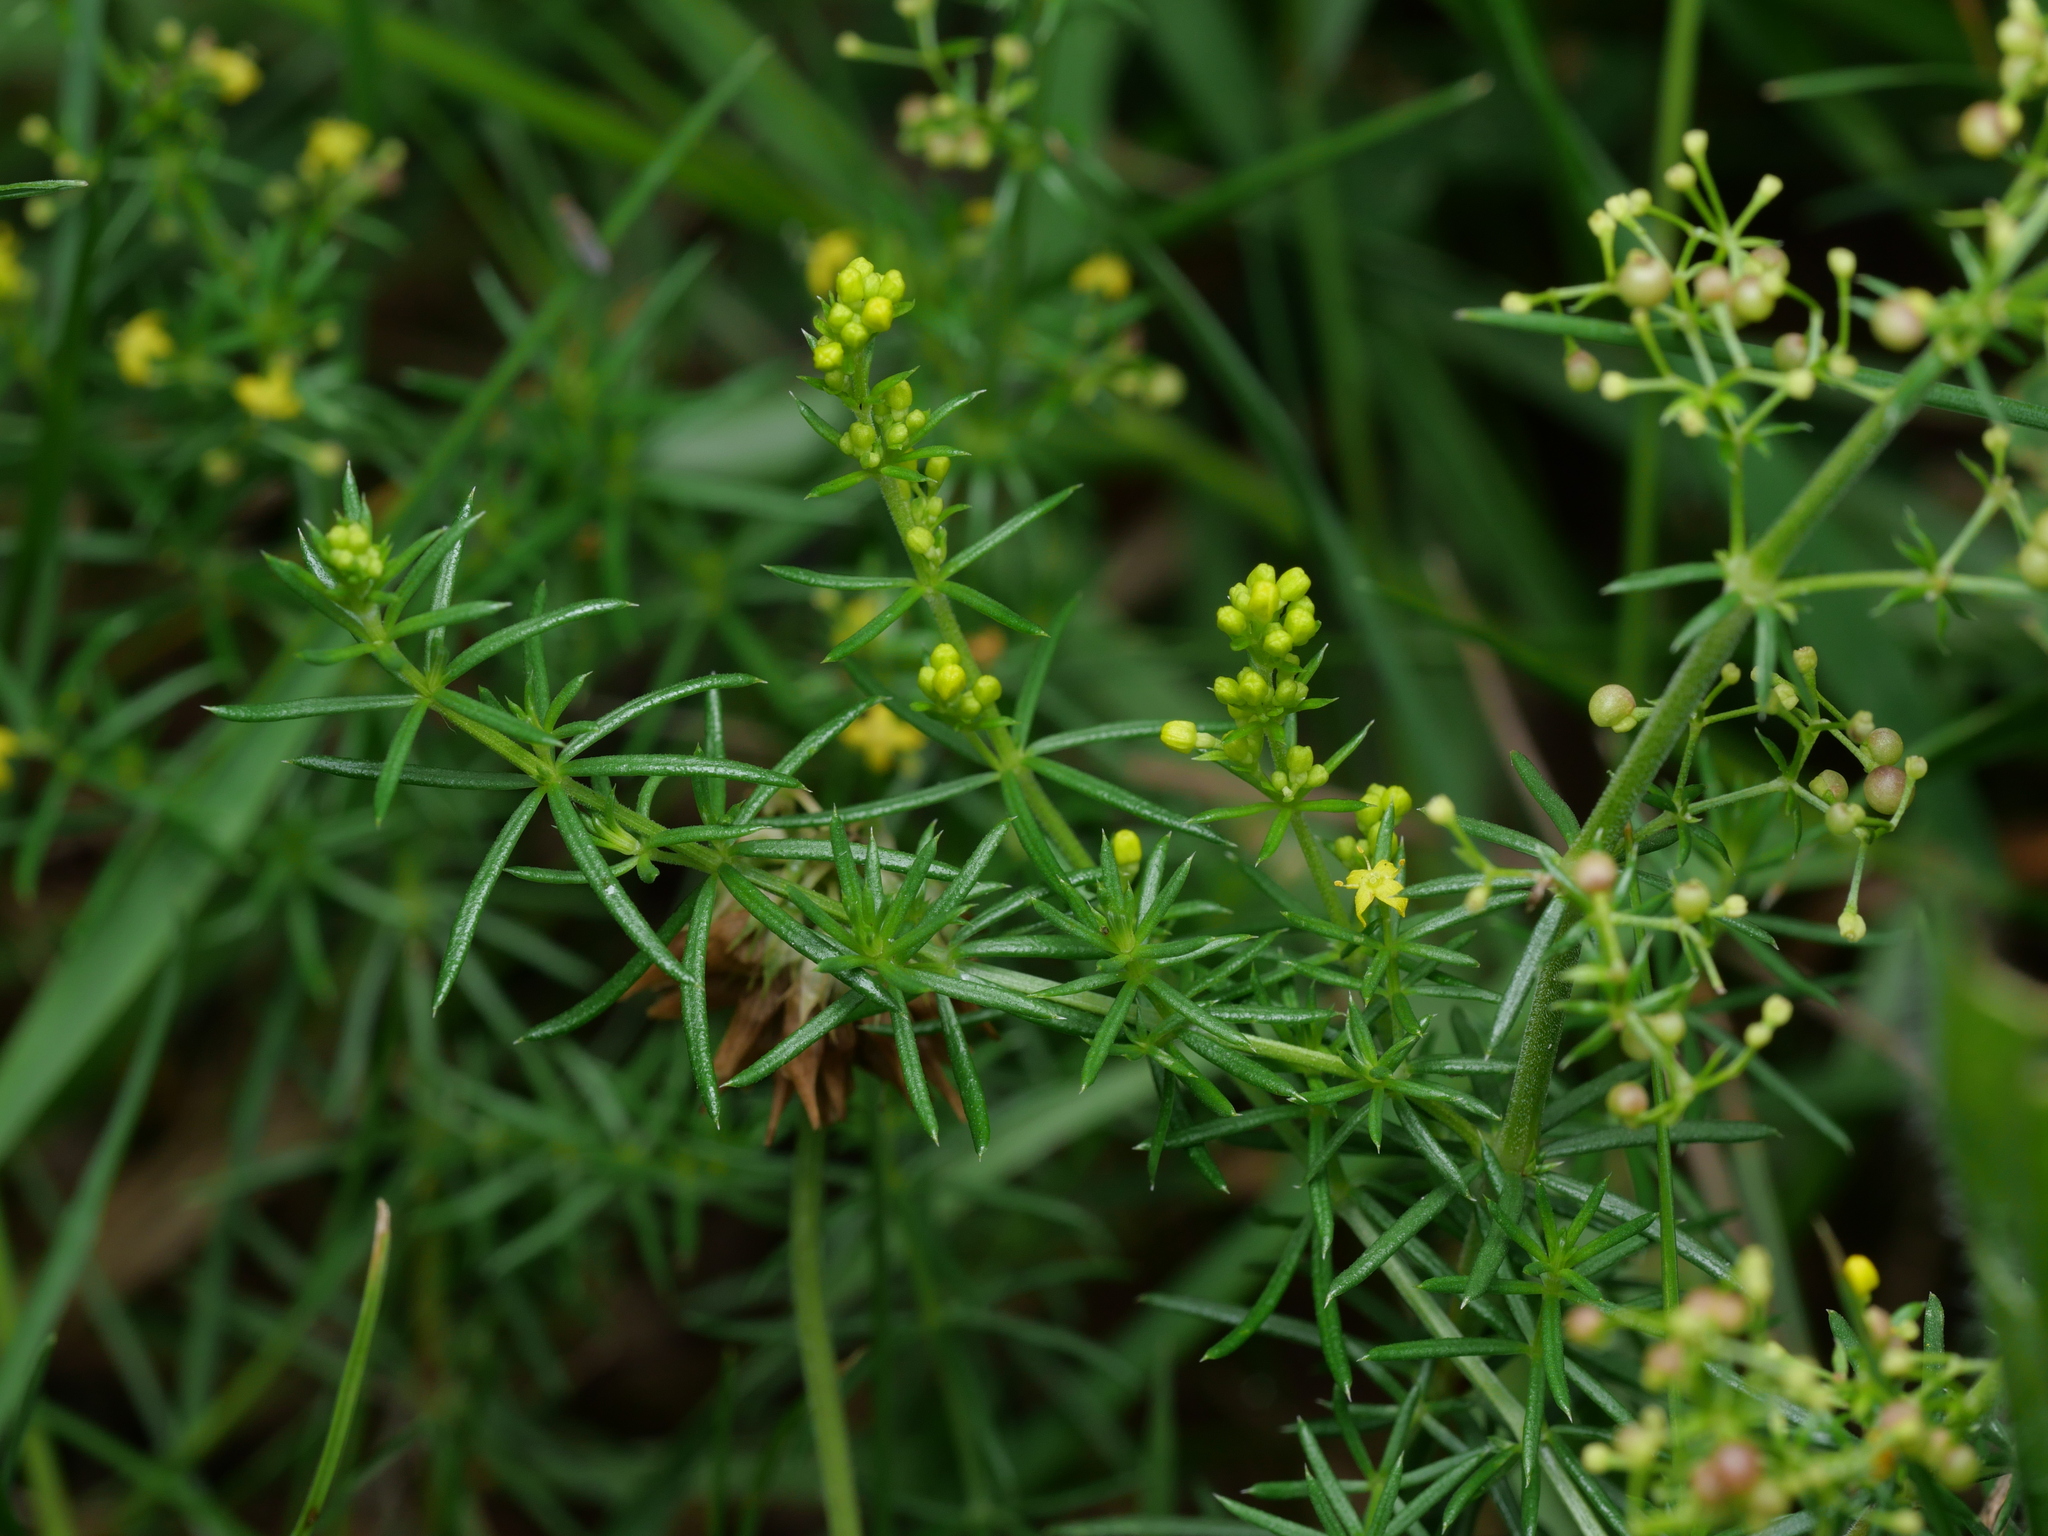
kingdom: Plantae
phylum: Tracheophyta
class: Magnoliopsida
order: Gentianales
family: Rubiaceae
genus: Galium
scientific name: Galium verum
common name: Lady's bedstraw
